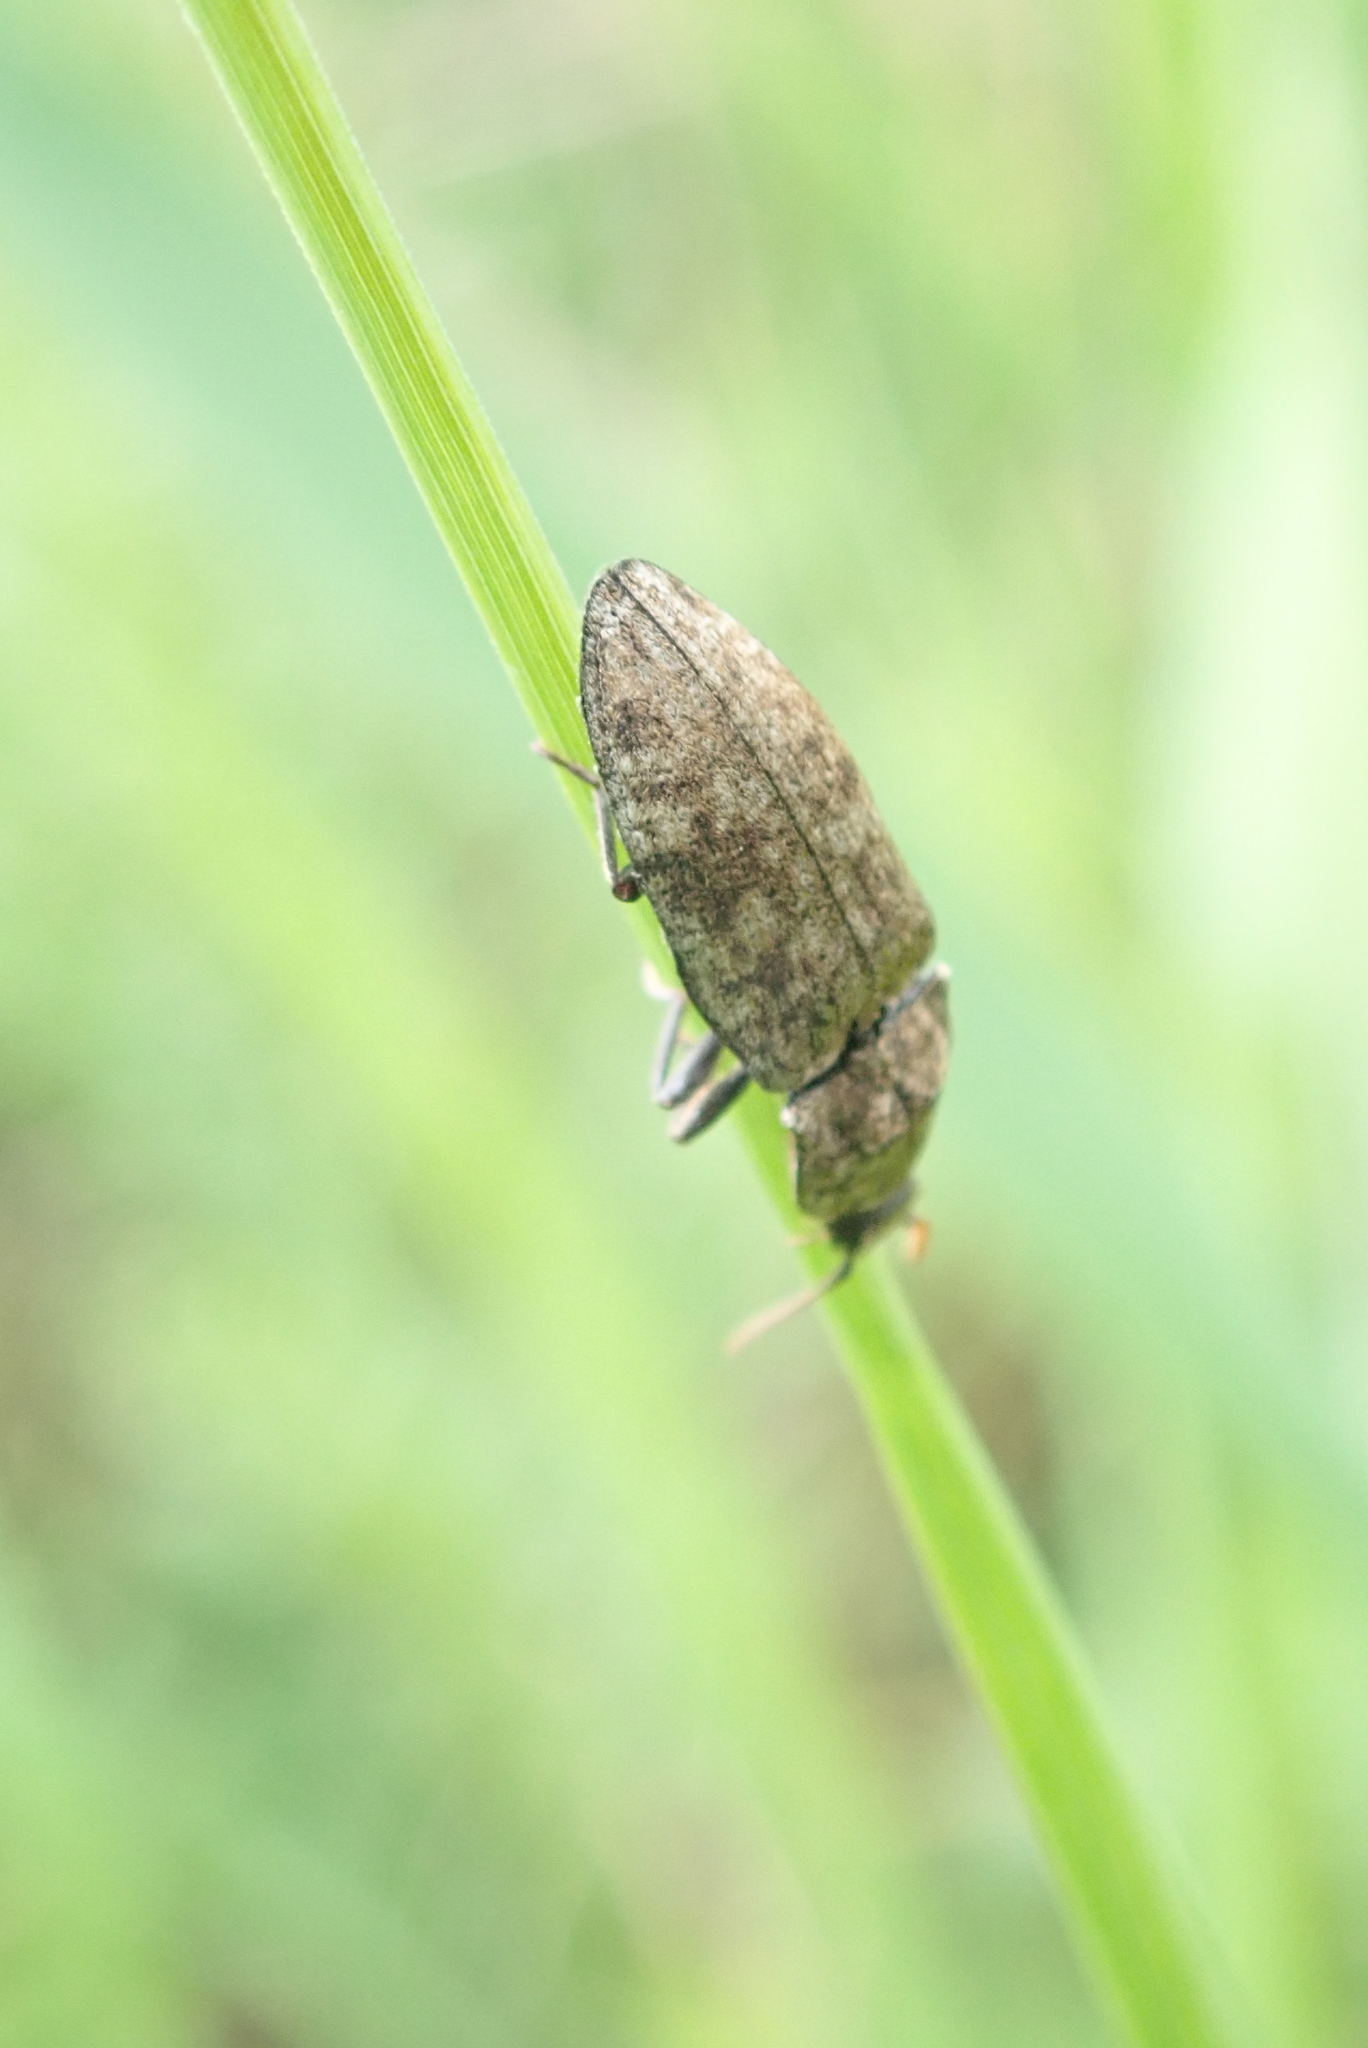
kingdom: Animalia
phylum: Arthropoda
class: Insecta
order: Coleoptera
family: Elateridae
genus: Agrypnus
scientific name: Agrypnus murinus
